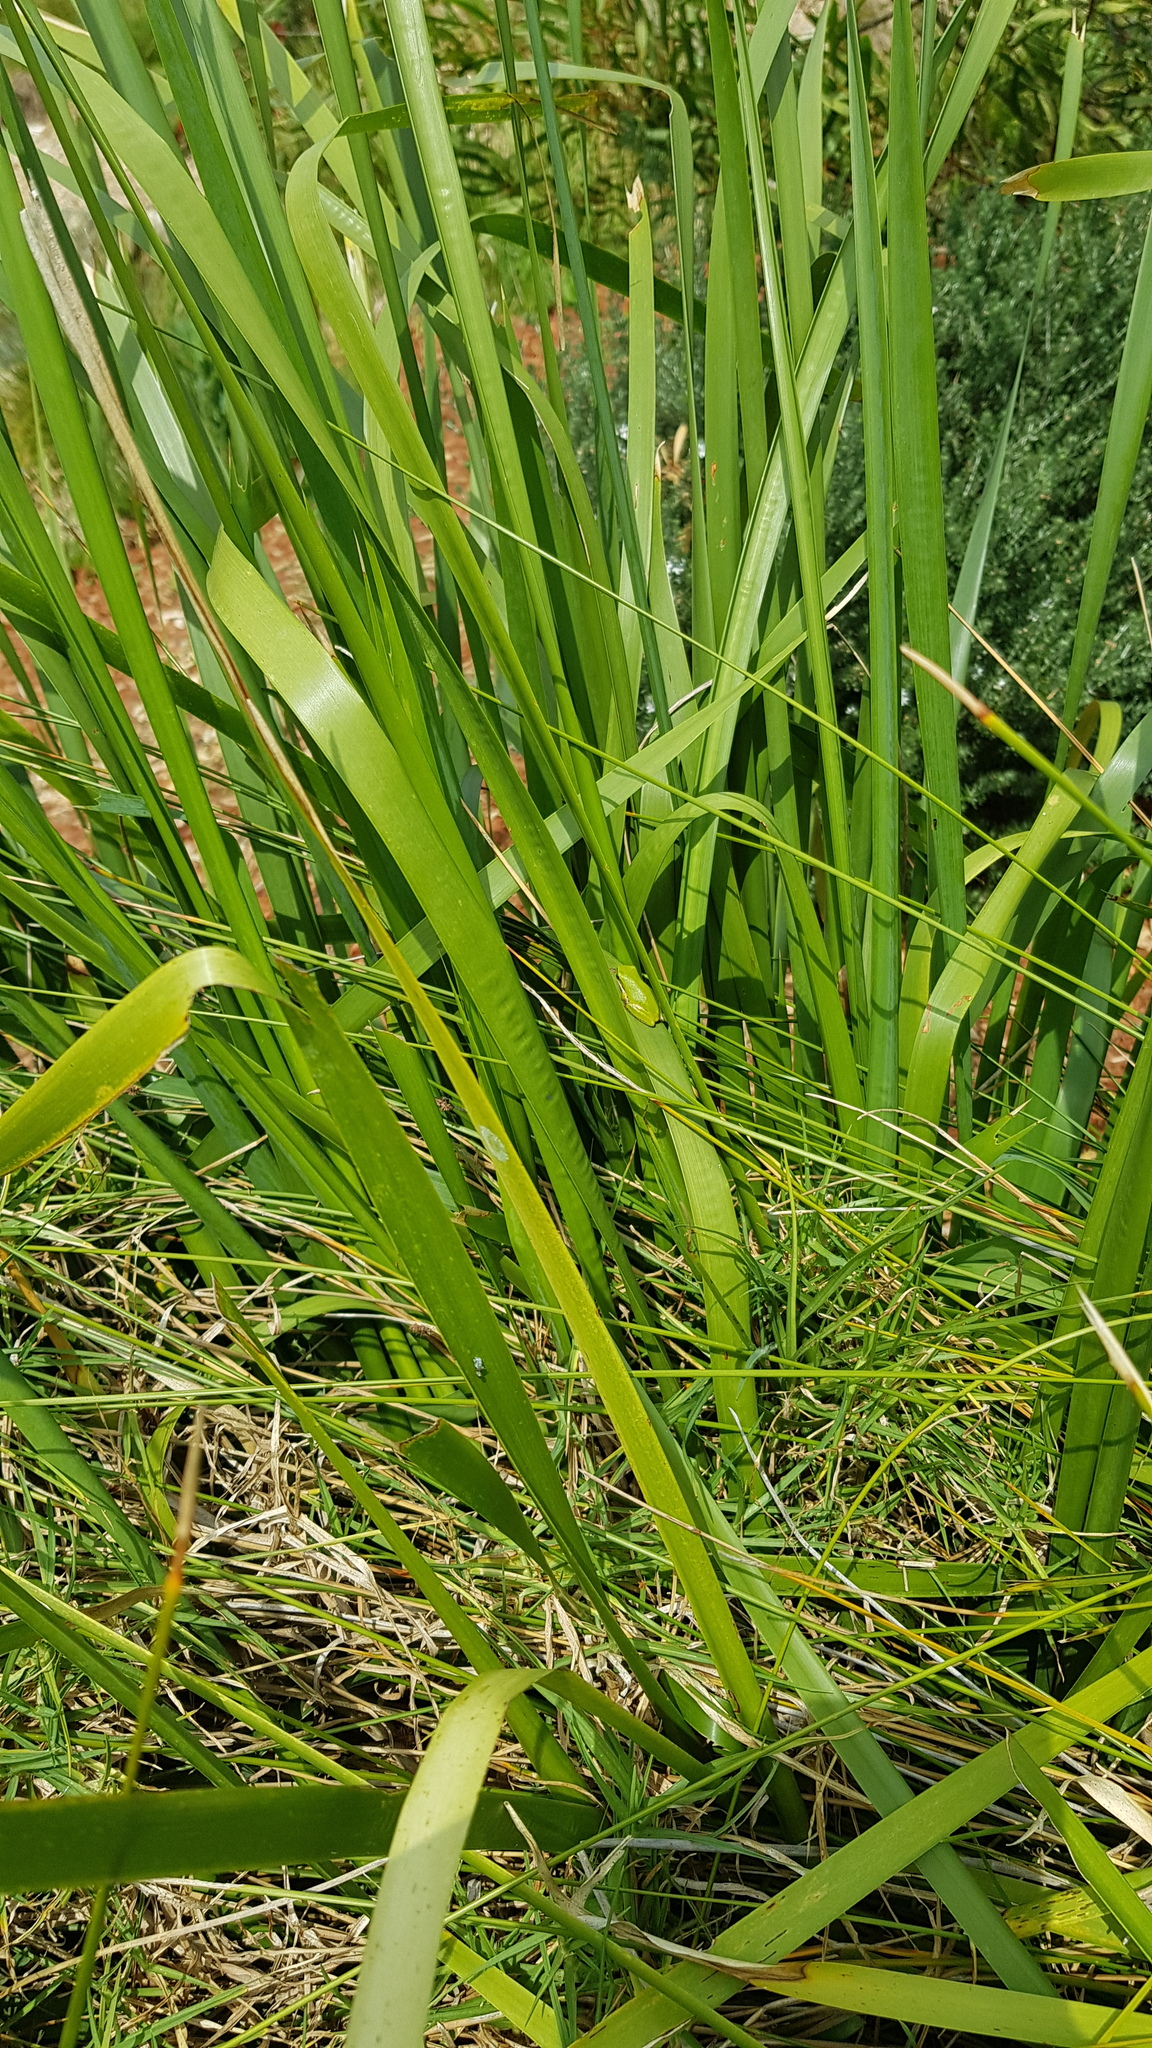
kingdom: Animalia
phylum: Chordata
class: Amphibia
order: Anura
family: Pelodryadidae
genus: Litoria
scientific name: Litoria fallax
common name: Eastern dwarf treefrog
